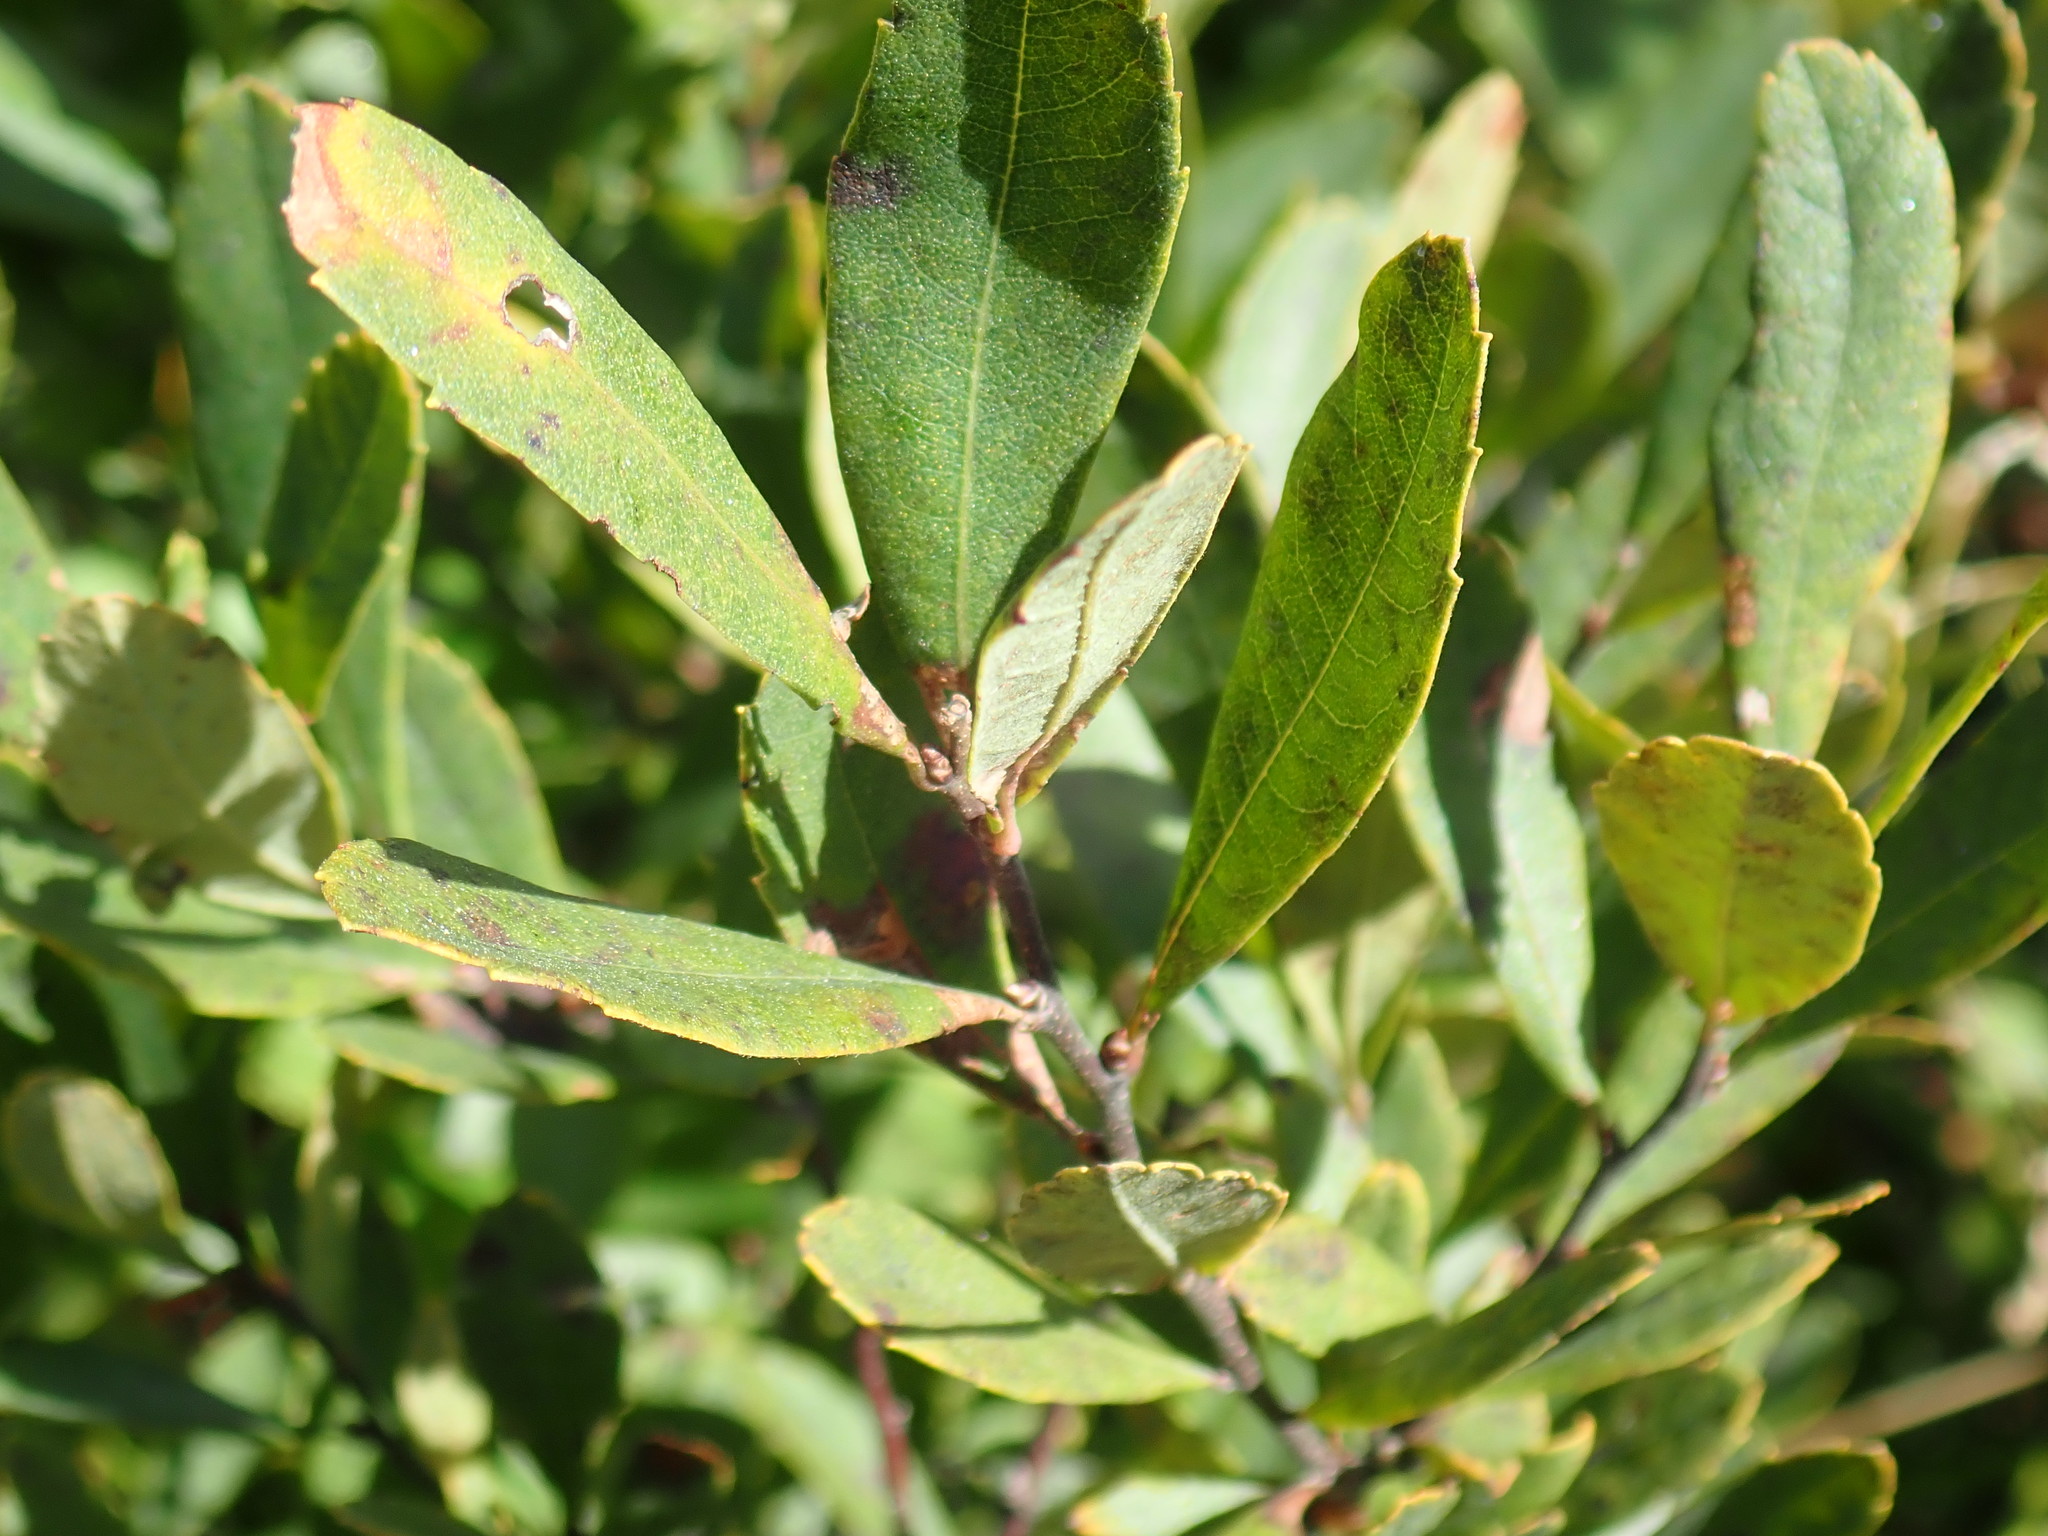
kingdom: Plantae
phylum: Tracheophyta
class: Magnoliopsida
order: Fagales
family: Myricaceae
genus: Myrica
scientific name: Myrica gale
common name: Sweet gale
